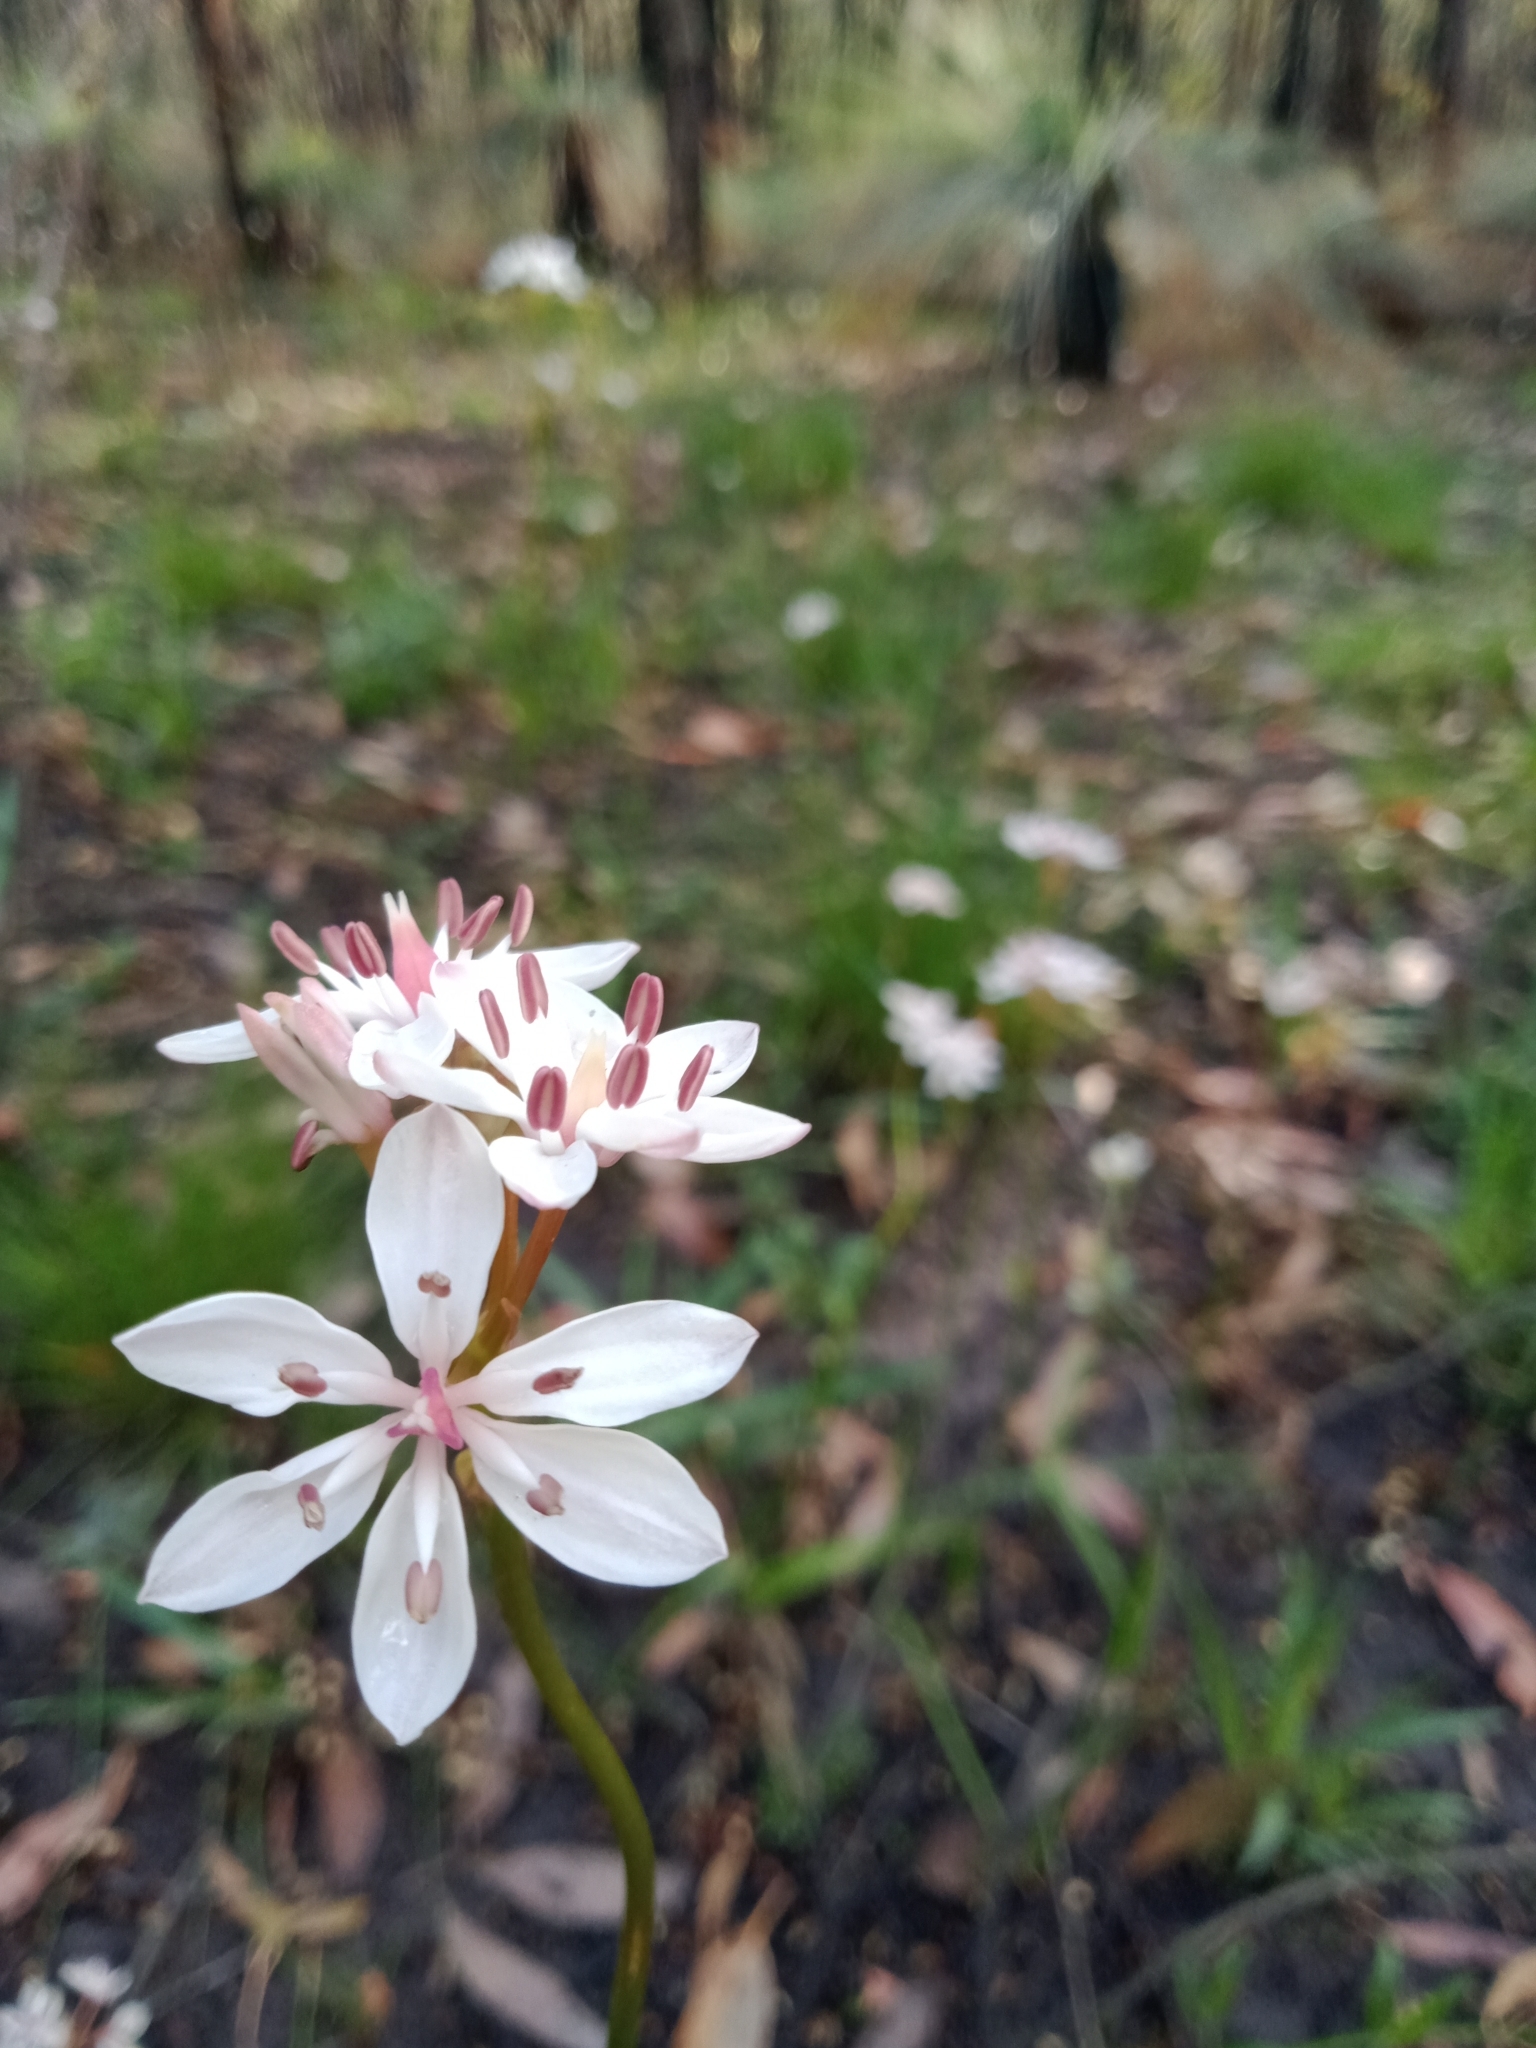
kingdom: Plantae
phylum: Tracheophyta
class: Liliopsida
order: Liliales
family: Colchicaceae
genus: Burchardia
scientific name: Burchardia umbellata
